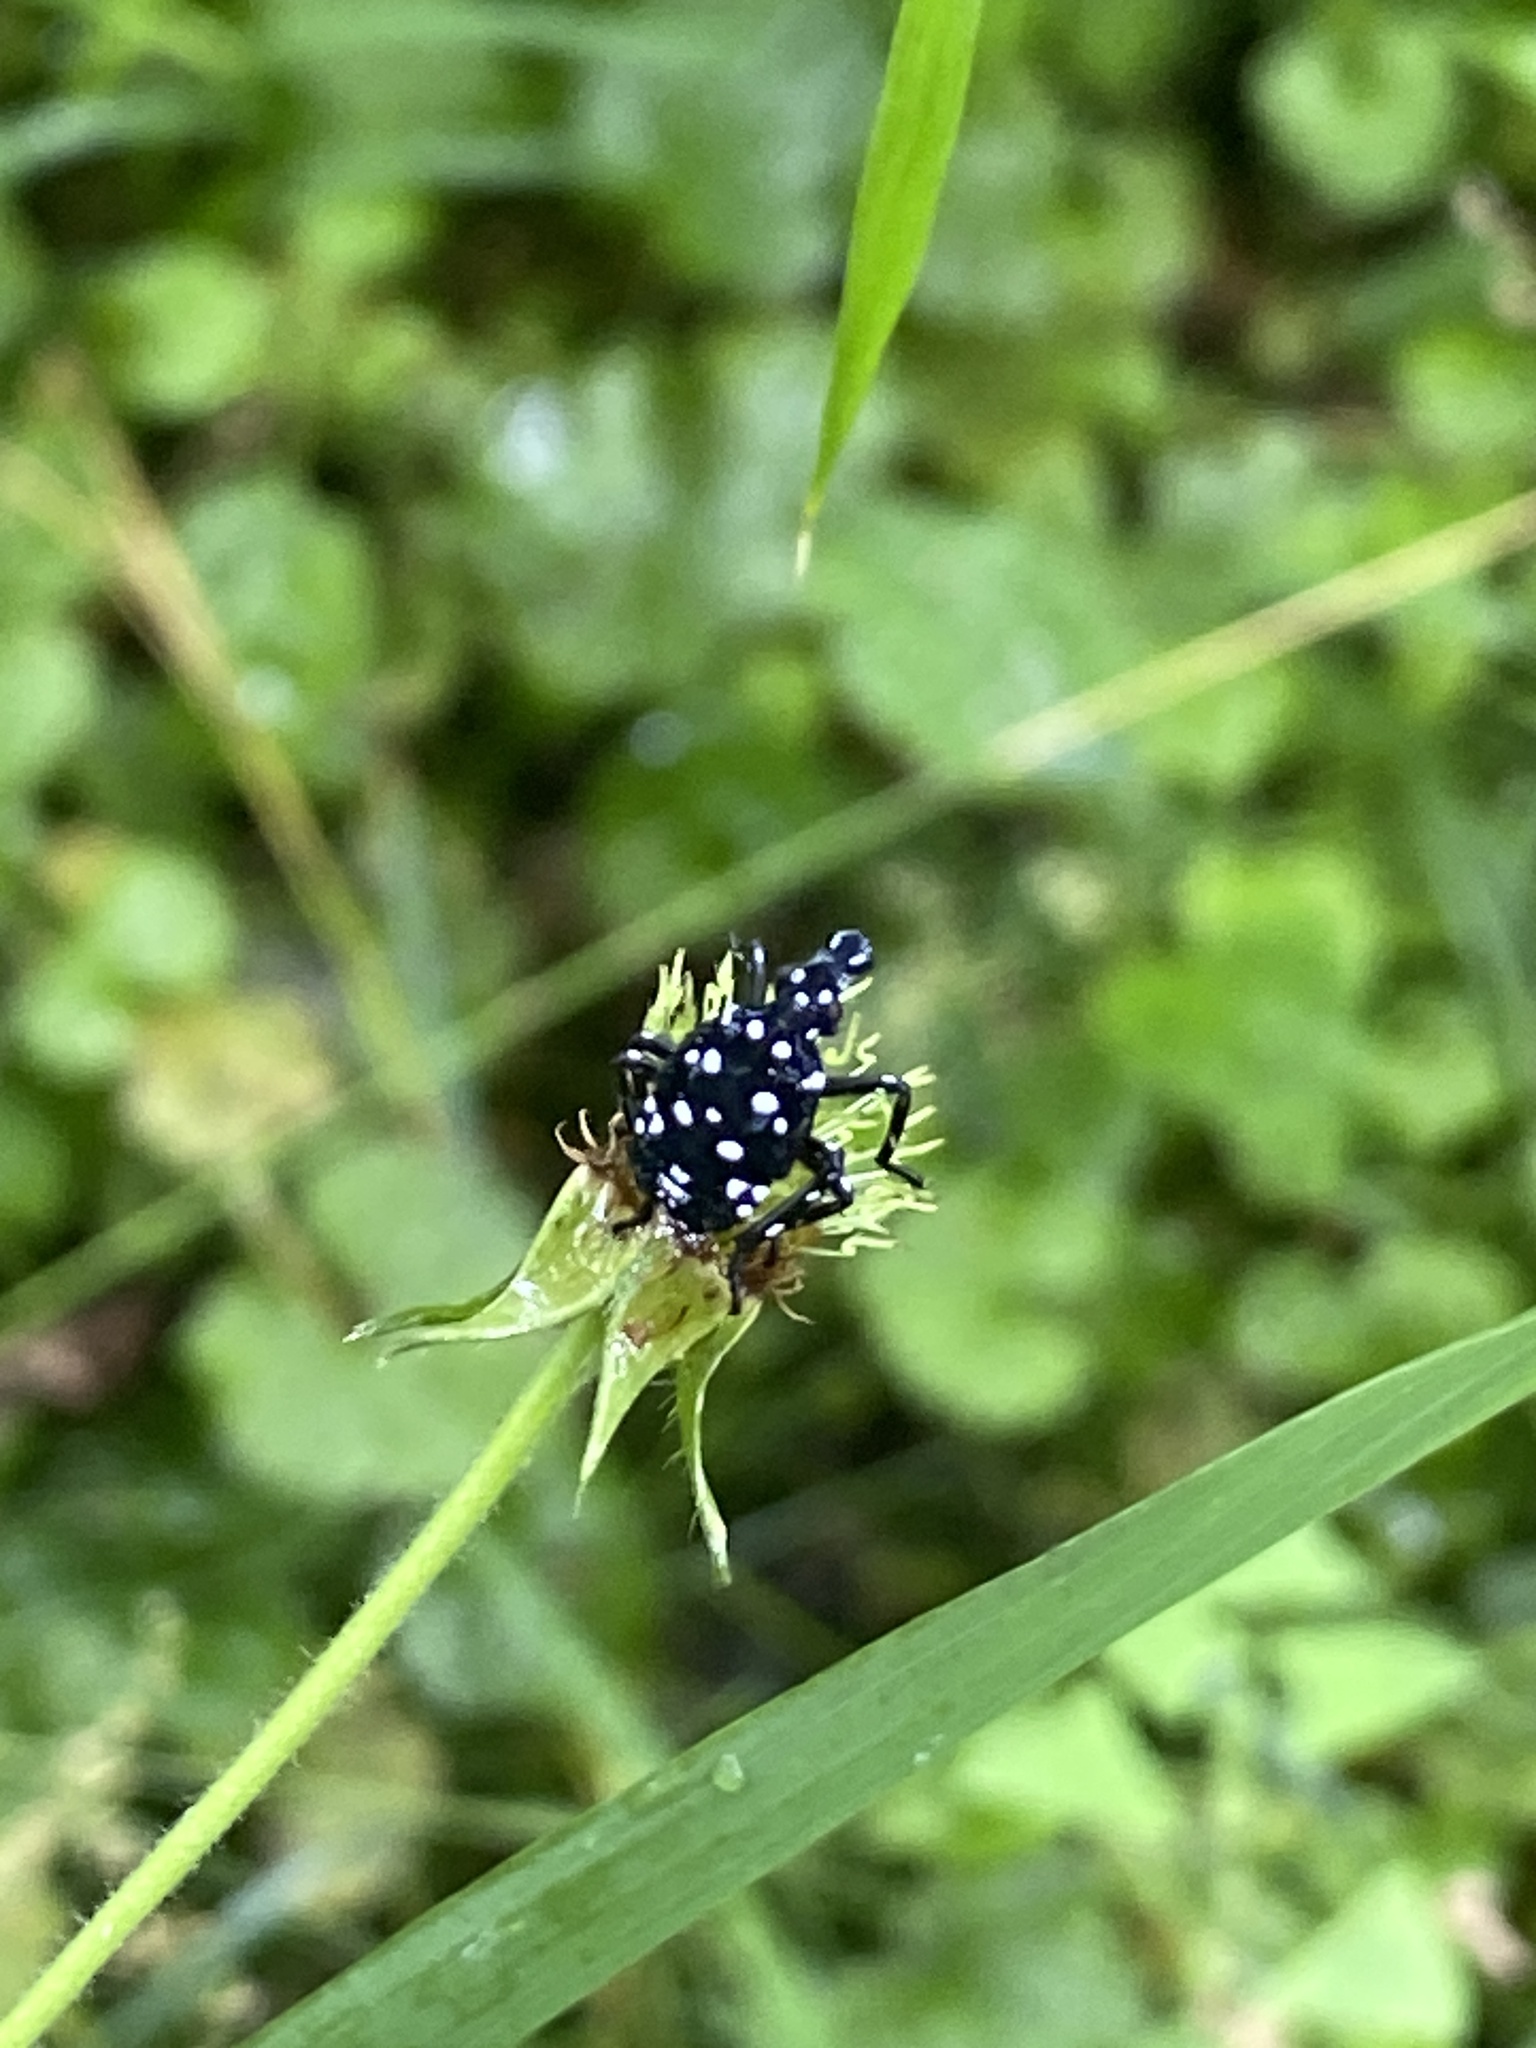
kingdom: Animalia
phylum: Arthropoda
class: Insecta
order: Hemiptera
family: Fulgoridae
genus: Lycorma
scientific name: Lycorma delicatula
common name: Spotted lanternfly
